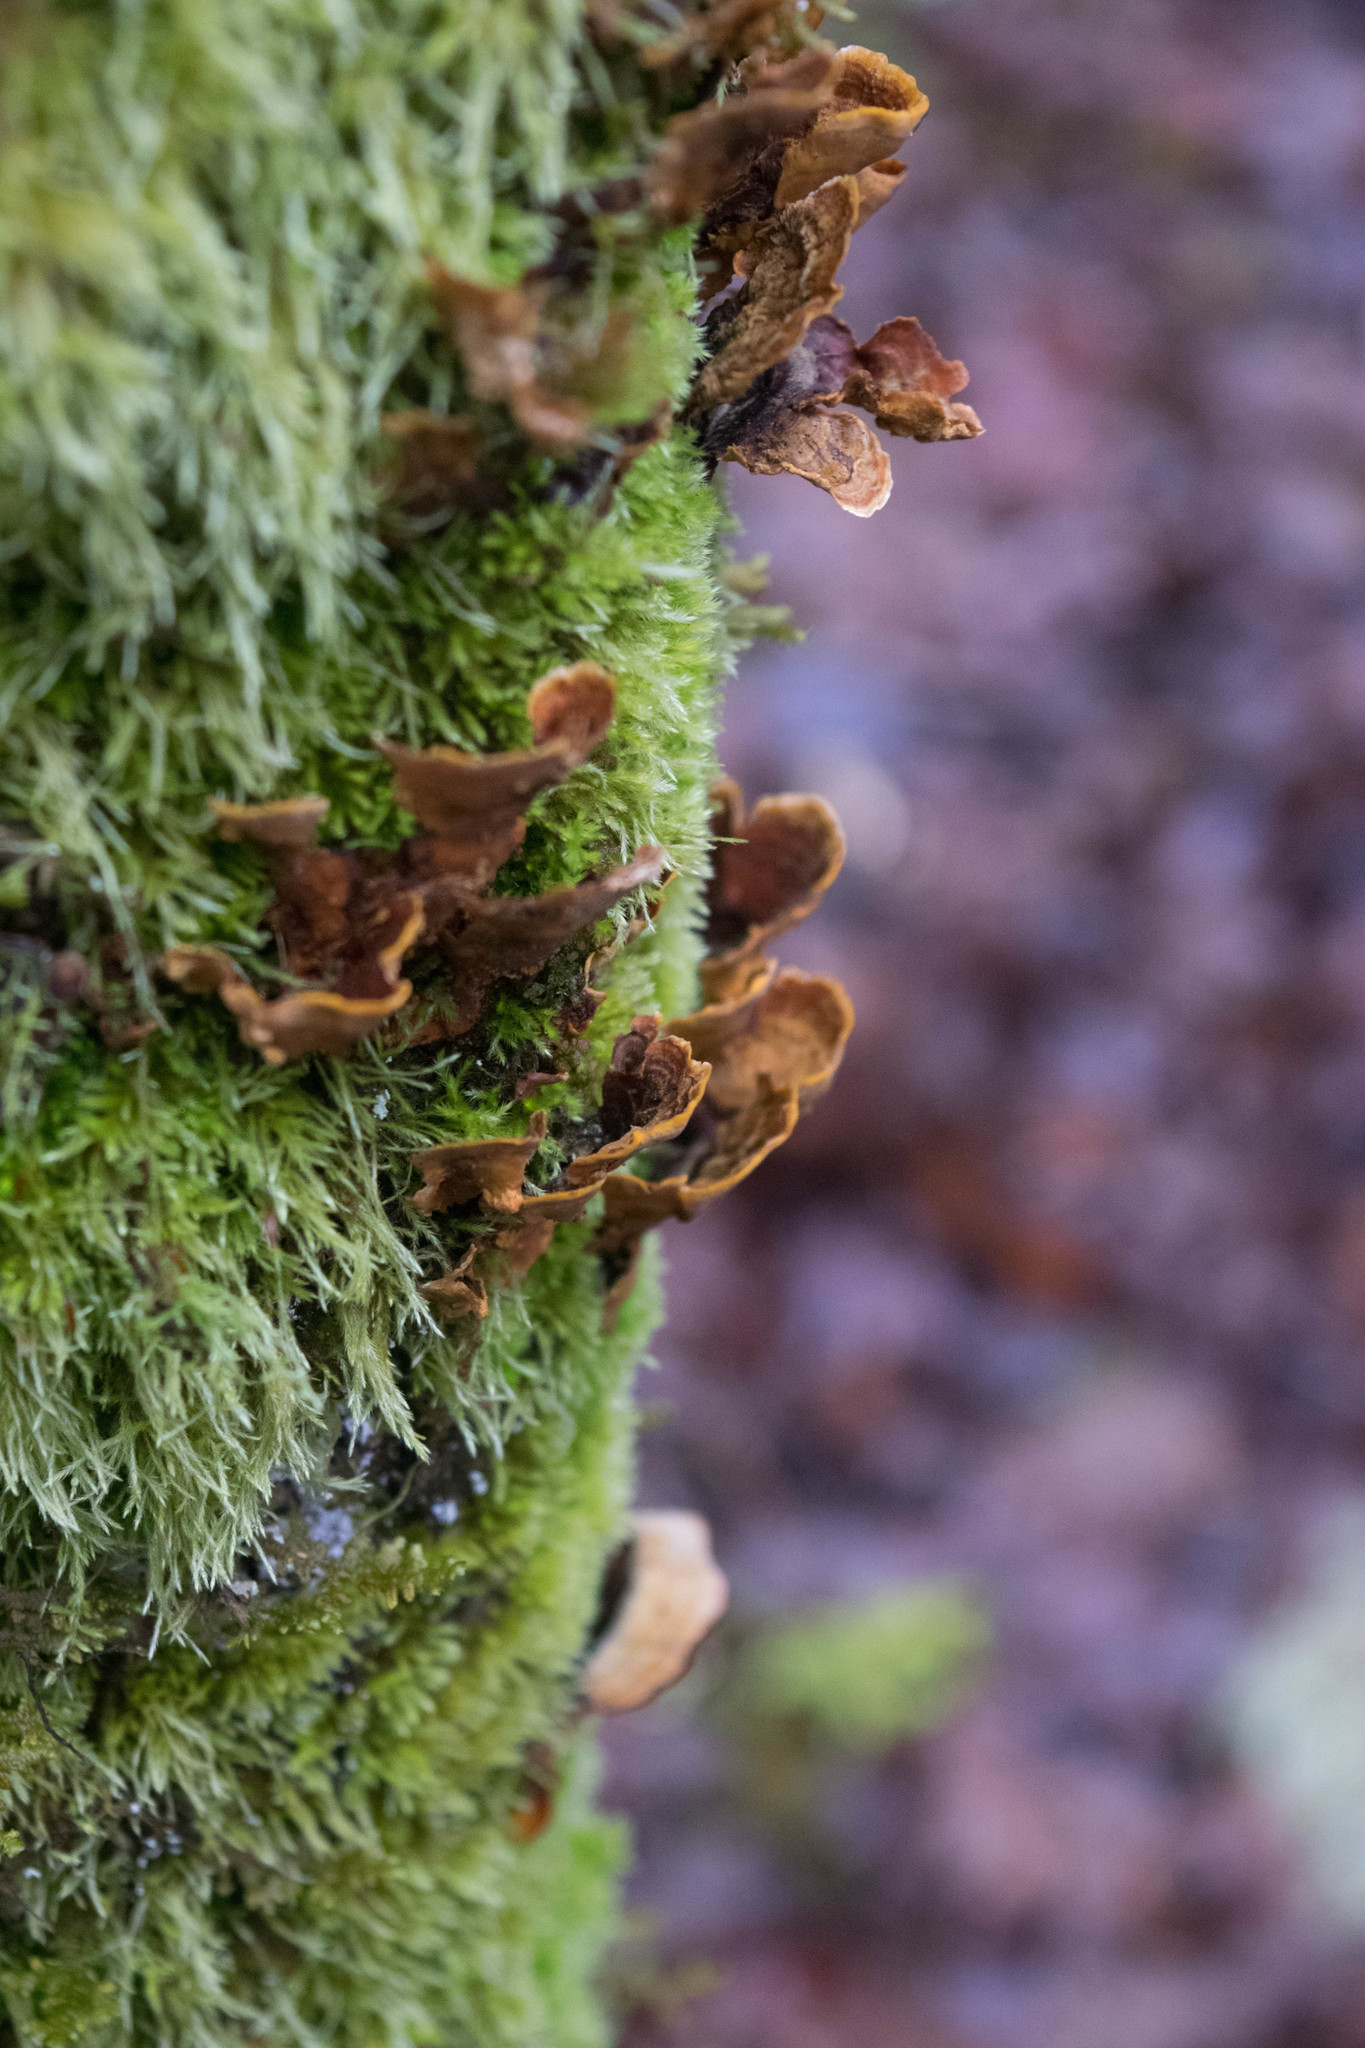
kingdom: Fungi
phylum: Basidiomycota
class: Agaricomycetes
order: Russulales
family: Stereaceae
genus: Stereum
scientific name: Stereum hirsutum
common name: Hairy curtain crust
